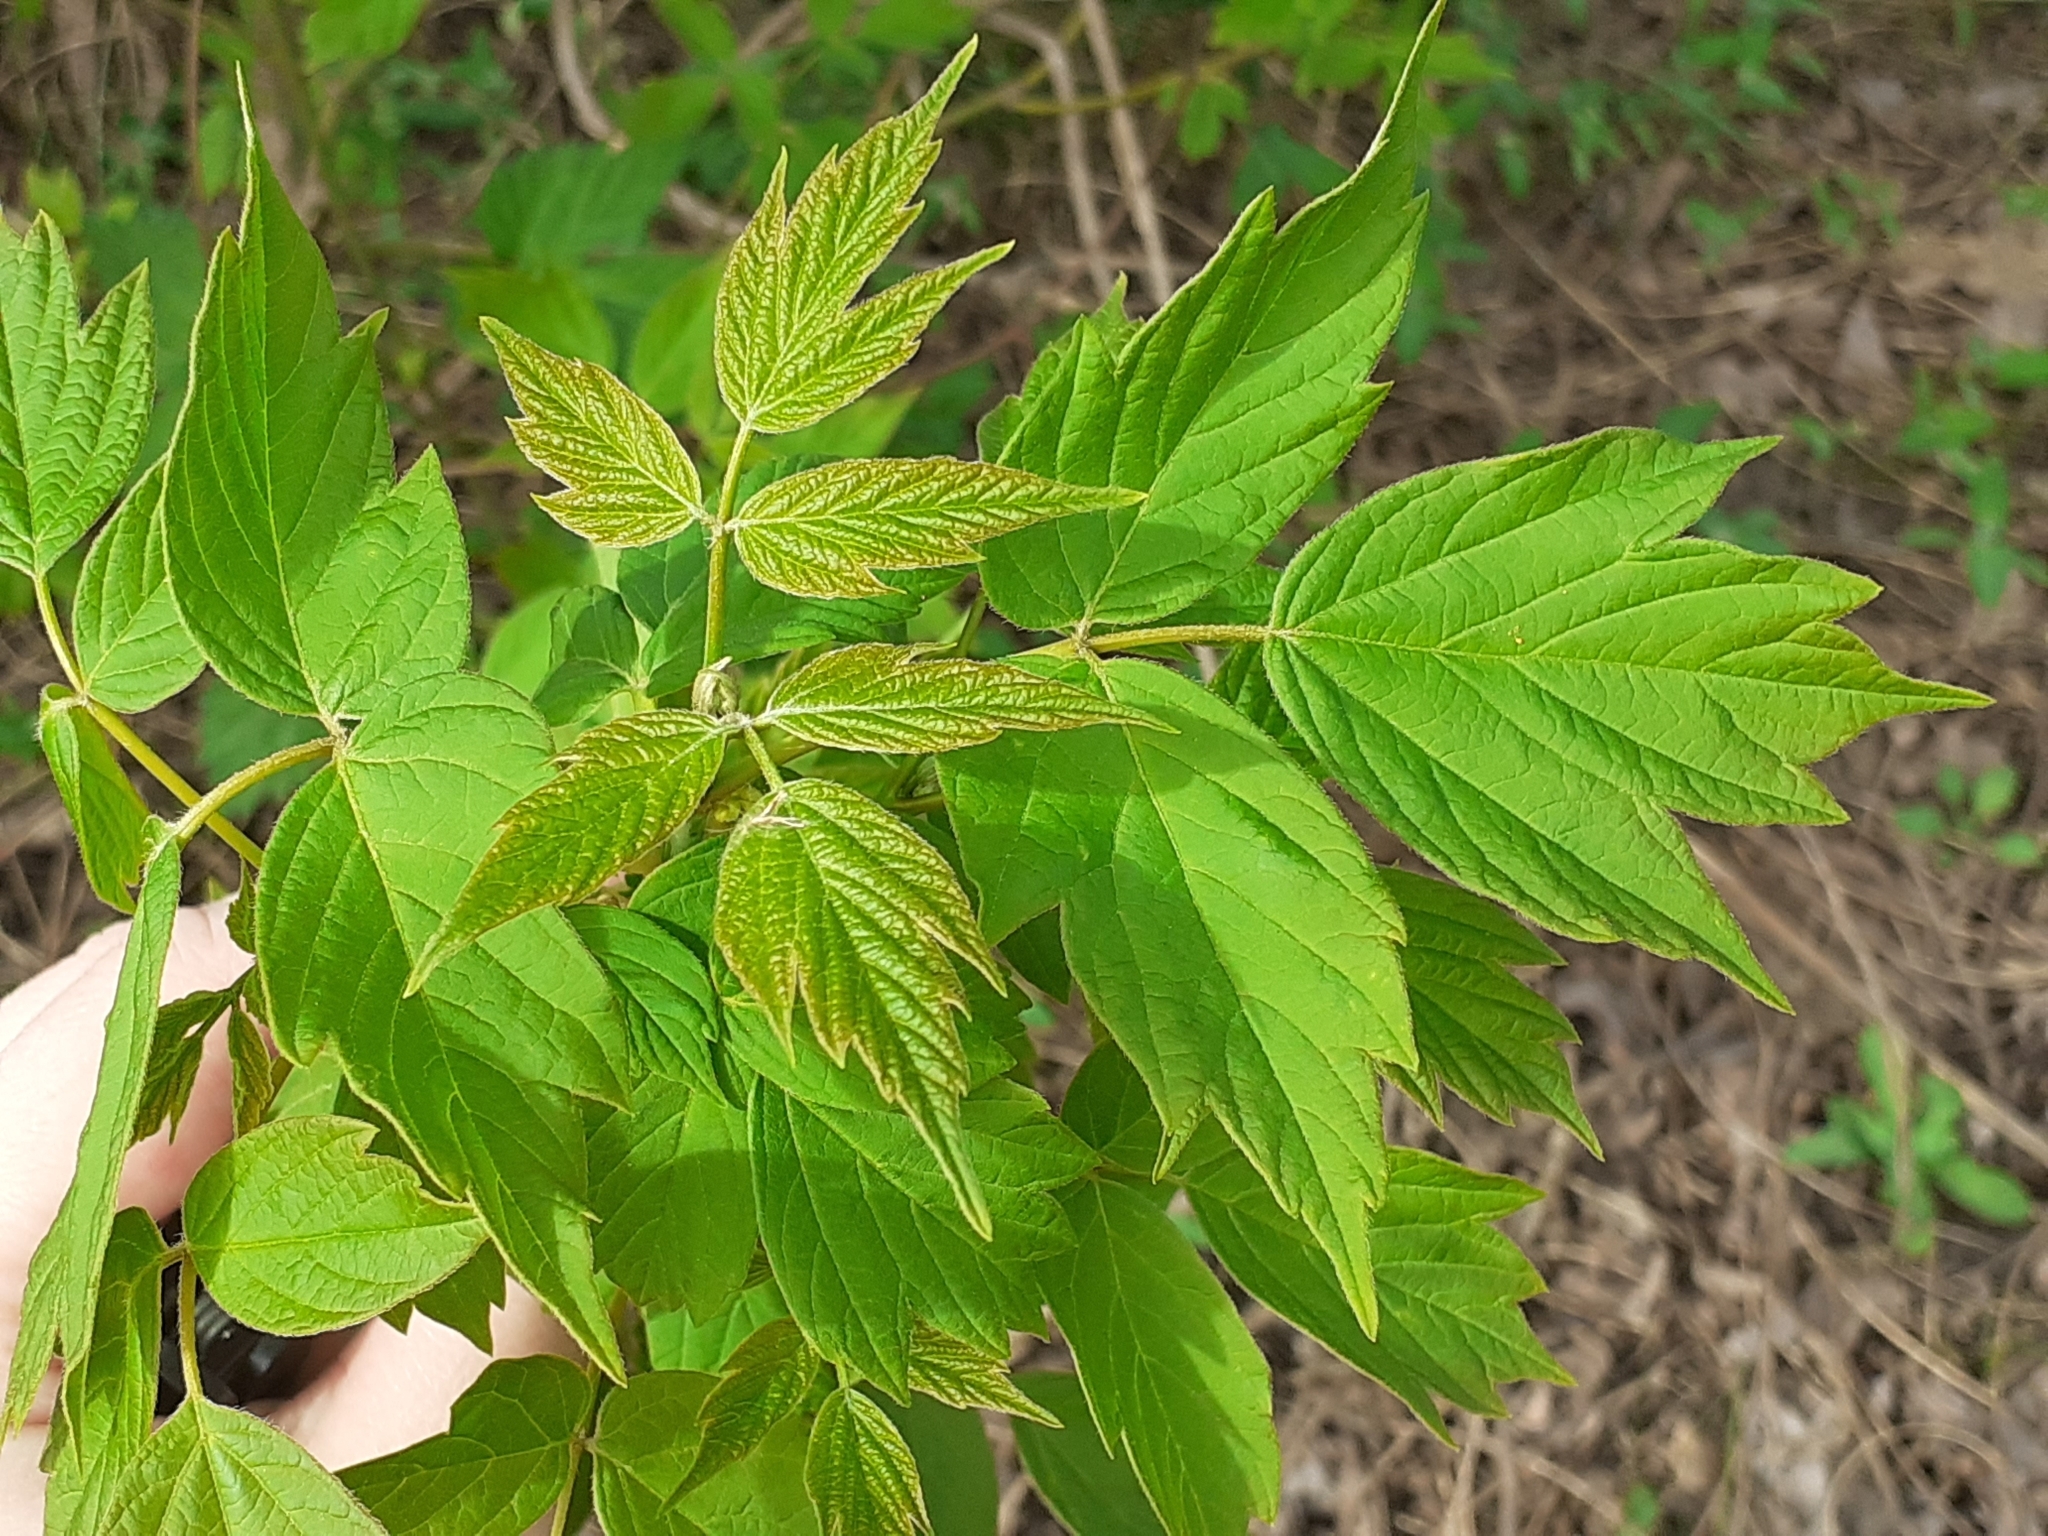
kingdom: Plantae
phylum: Tracheophyta
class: Magnoliopsida
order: Sapindales
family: Sapindaceae
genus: Acer
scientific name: Acer negundo
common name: Ashleaf maple
